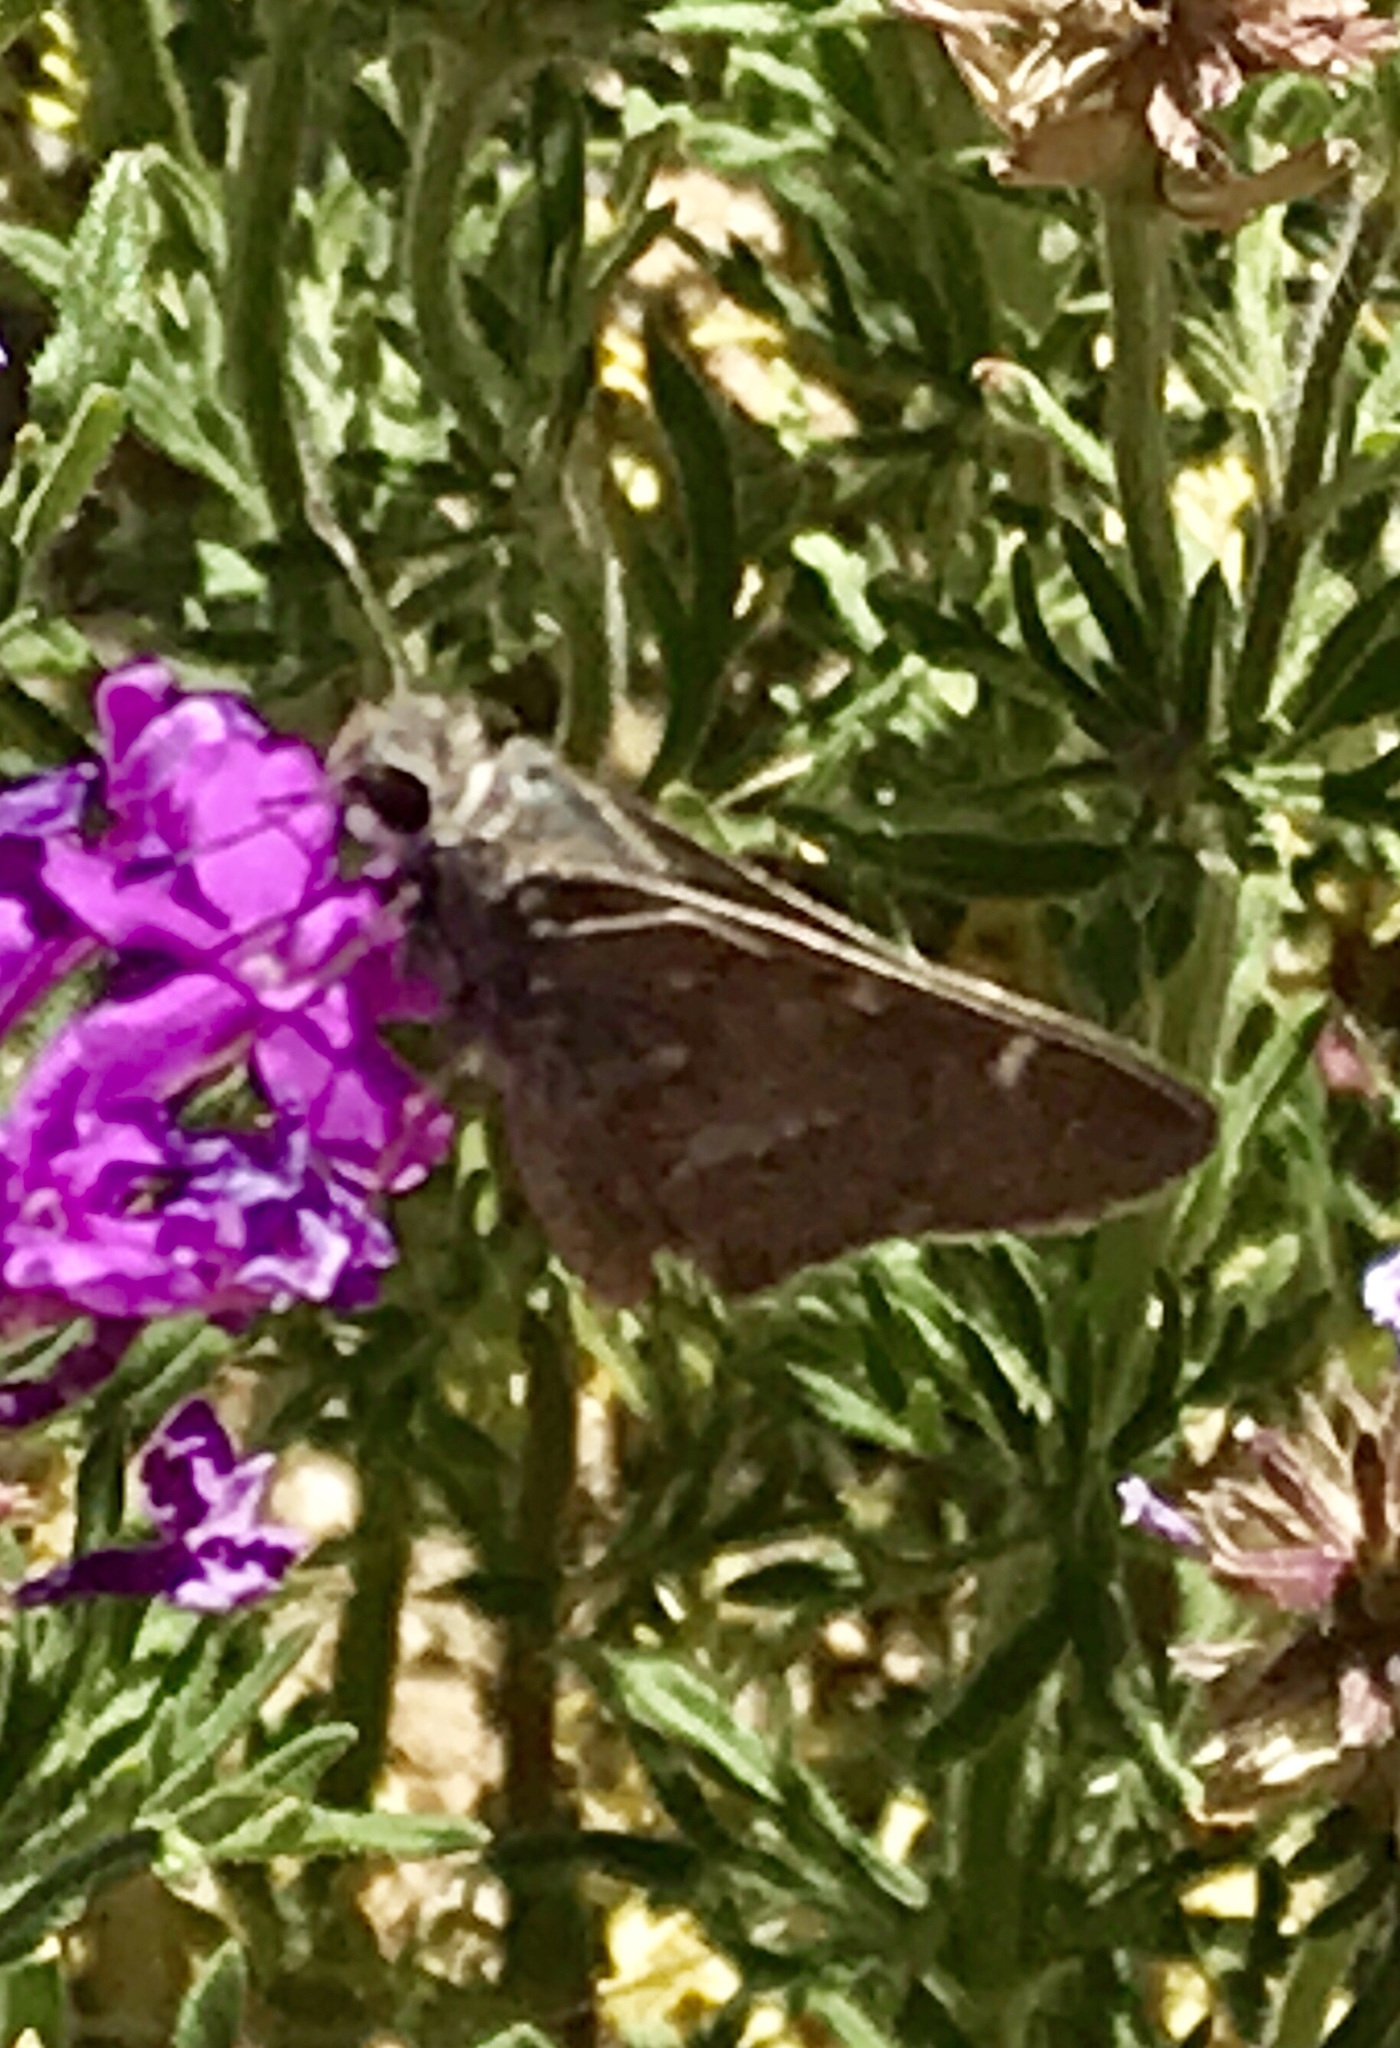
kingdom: Animalia
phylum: Arthropoda
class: Insecta
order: Lepidoptera
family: Hesperiidae
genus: Atrytonopsis
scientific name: Atrytonopsis pittacus
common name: White-barred skipper
